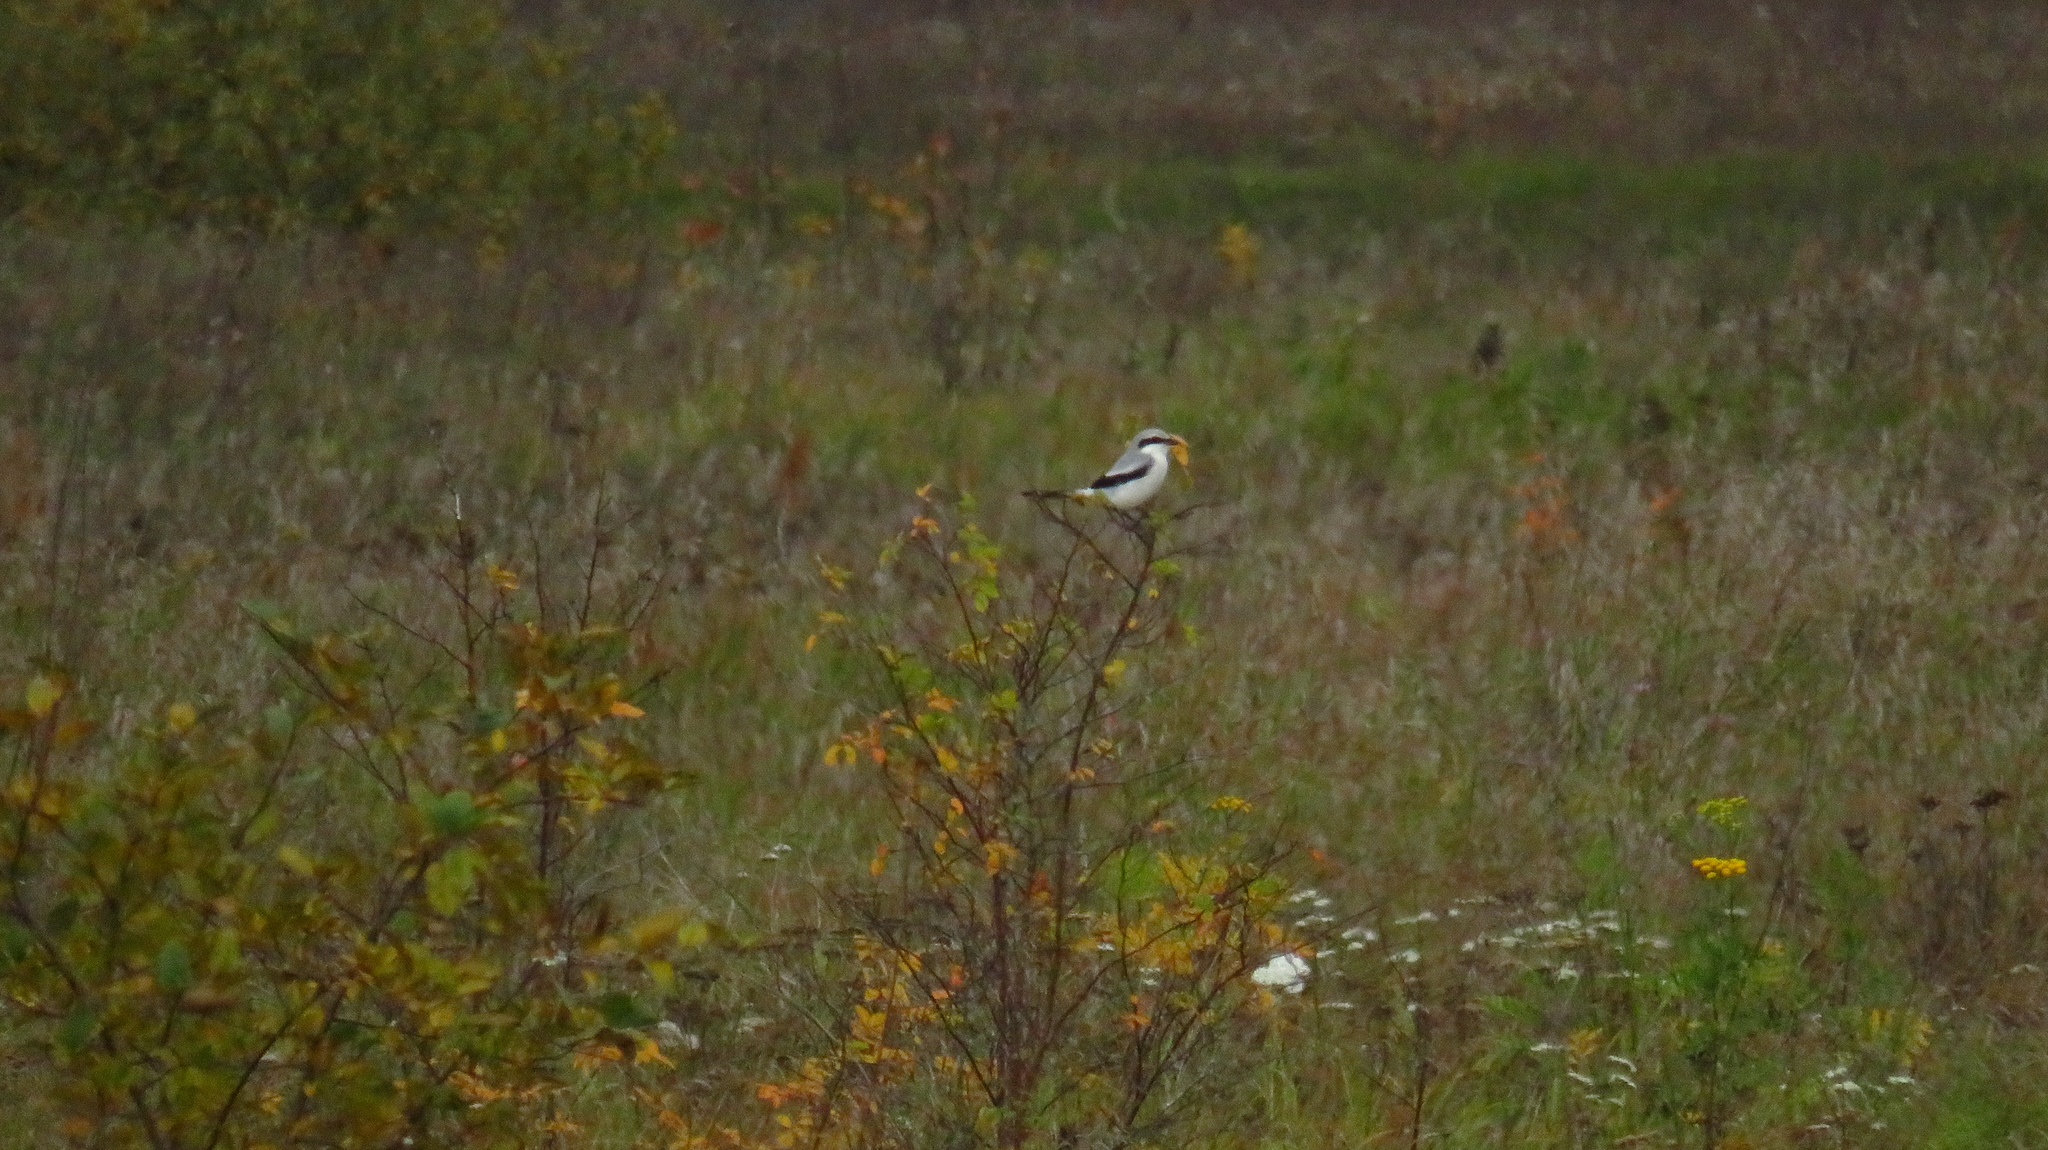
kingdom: Animalia
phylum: Chordata
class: Aves
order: Passeriformes
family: Laniidae
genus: Lanius
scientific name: Lanius excubitor
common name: Great grey shrike
